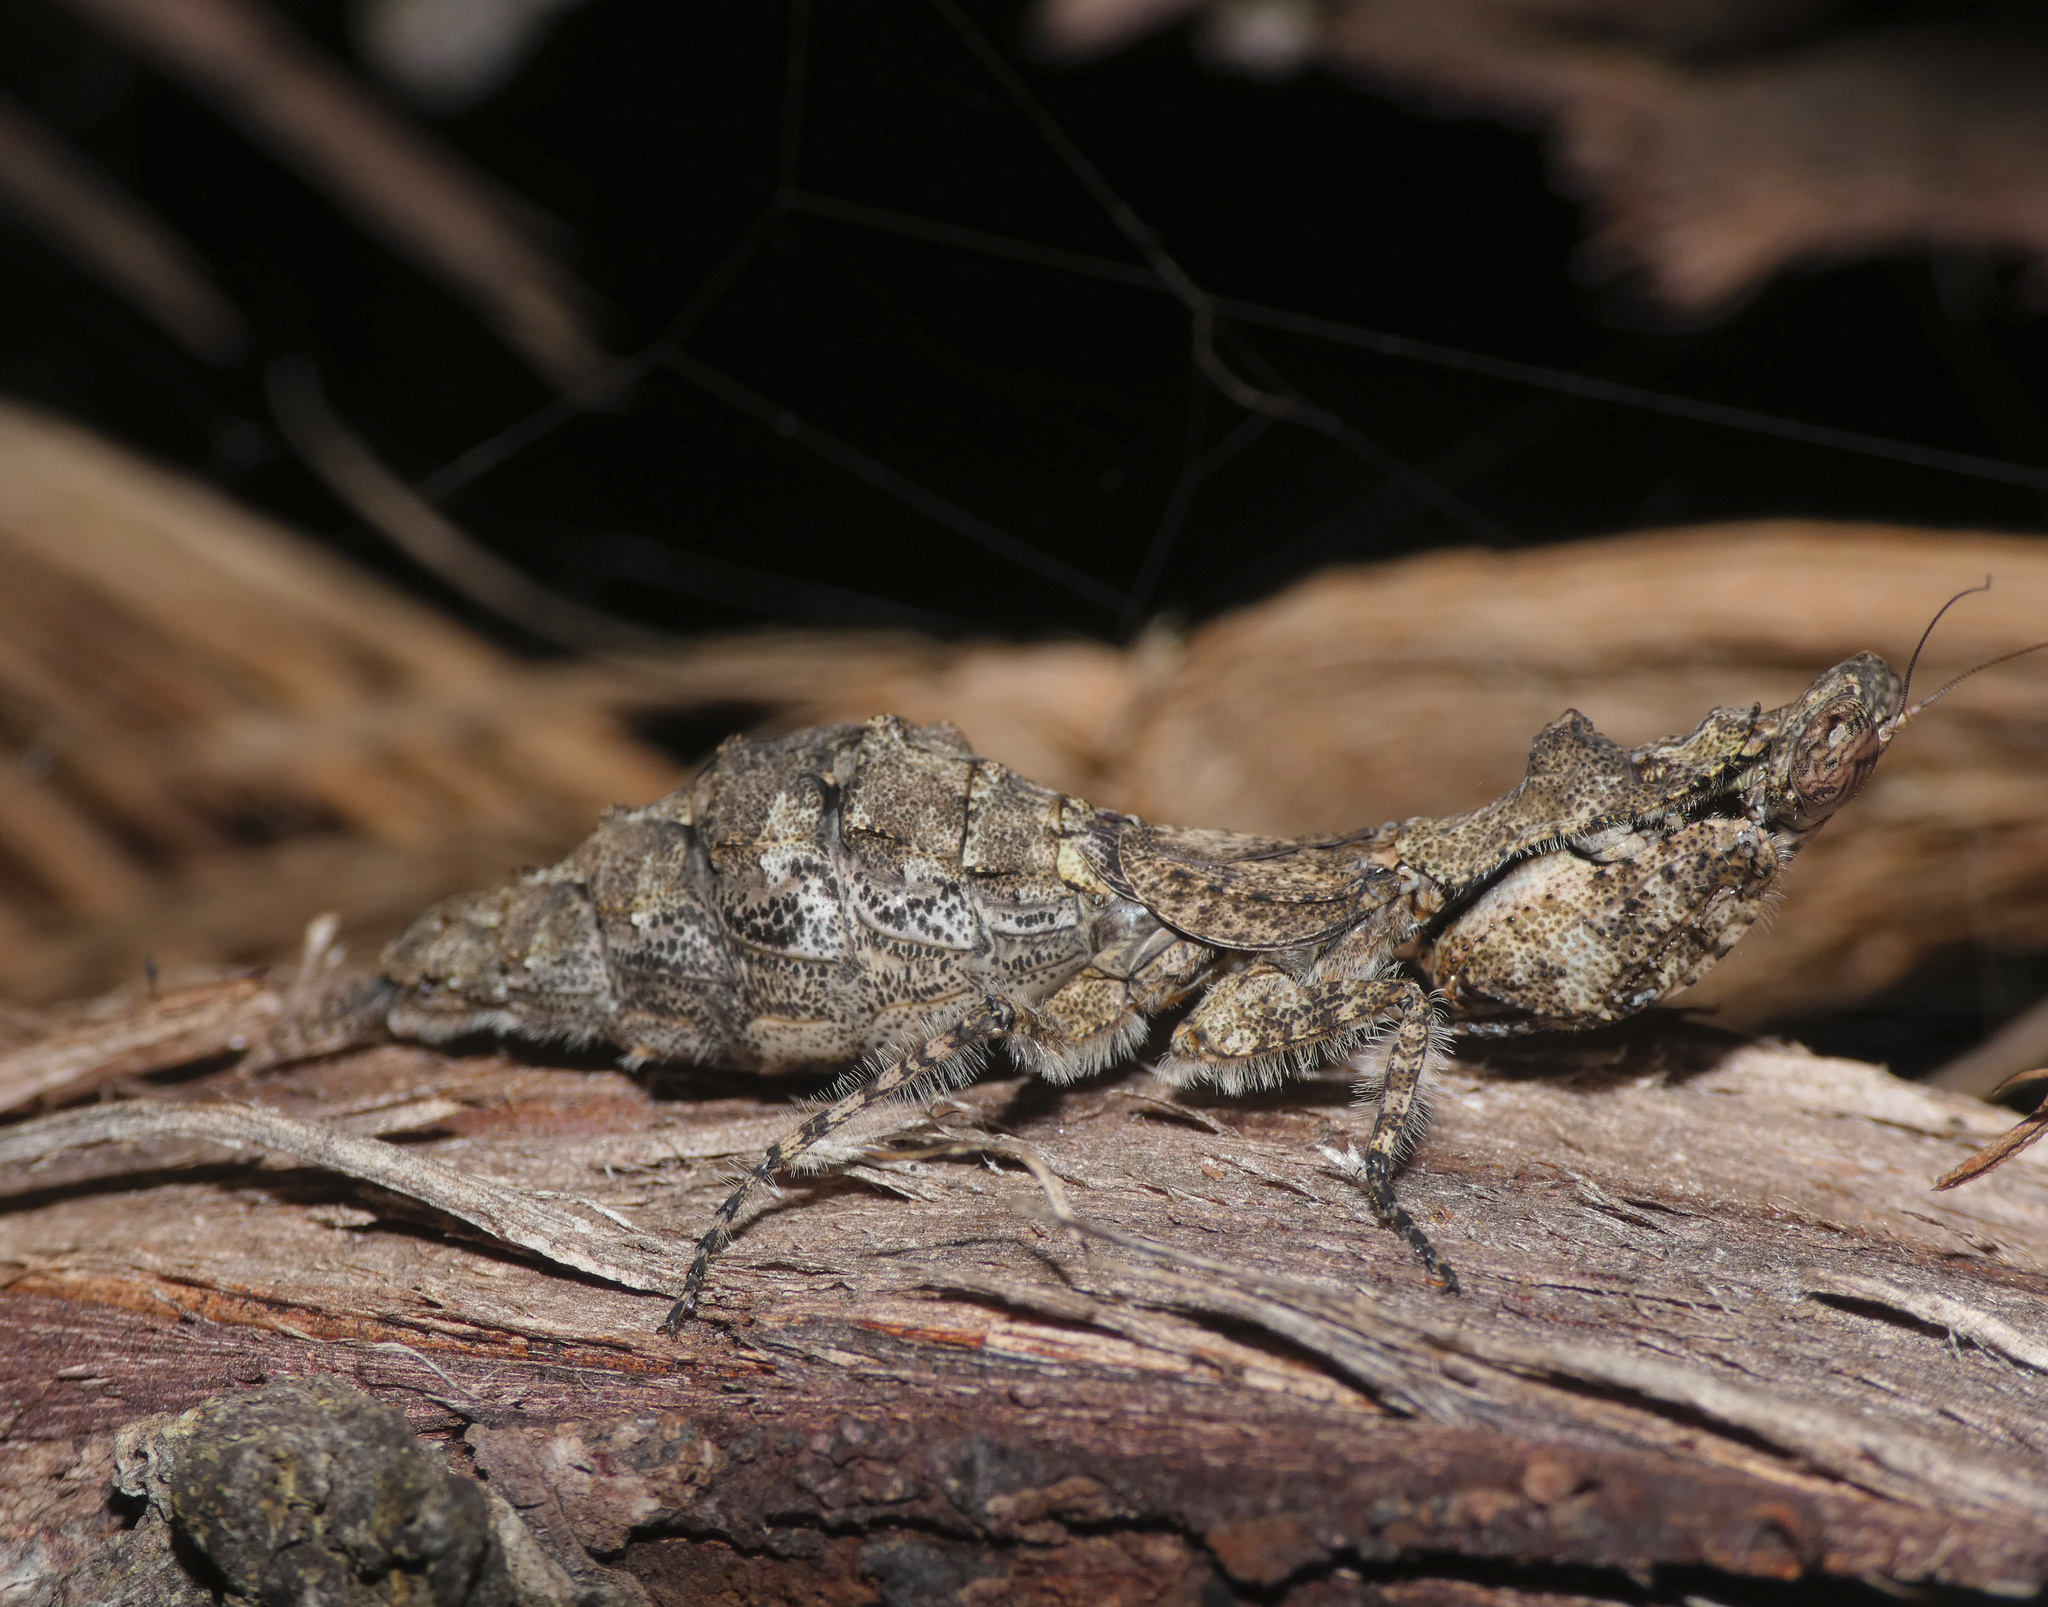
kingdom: Animalia
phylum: Arthropoda
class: Insecta
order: Mantodea
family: Eremiaphilidae
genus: Tarachodes
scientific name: Tarachodes sanctus
